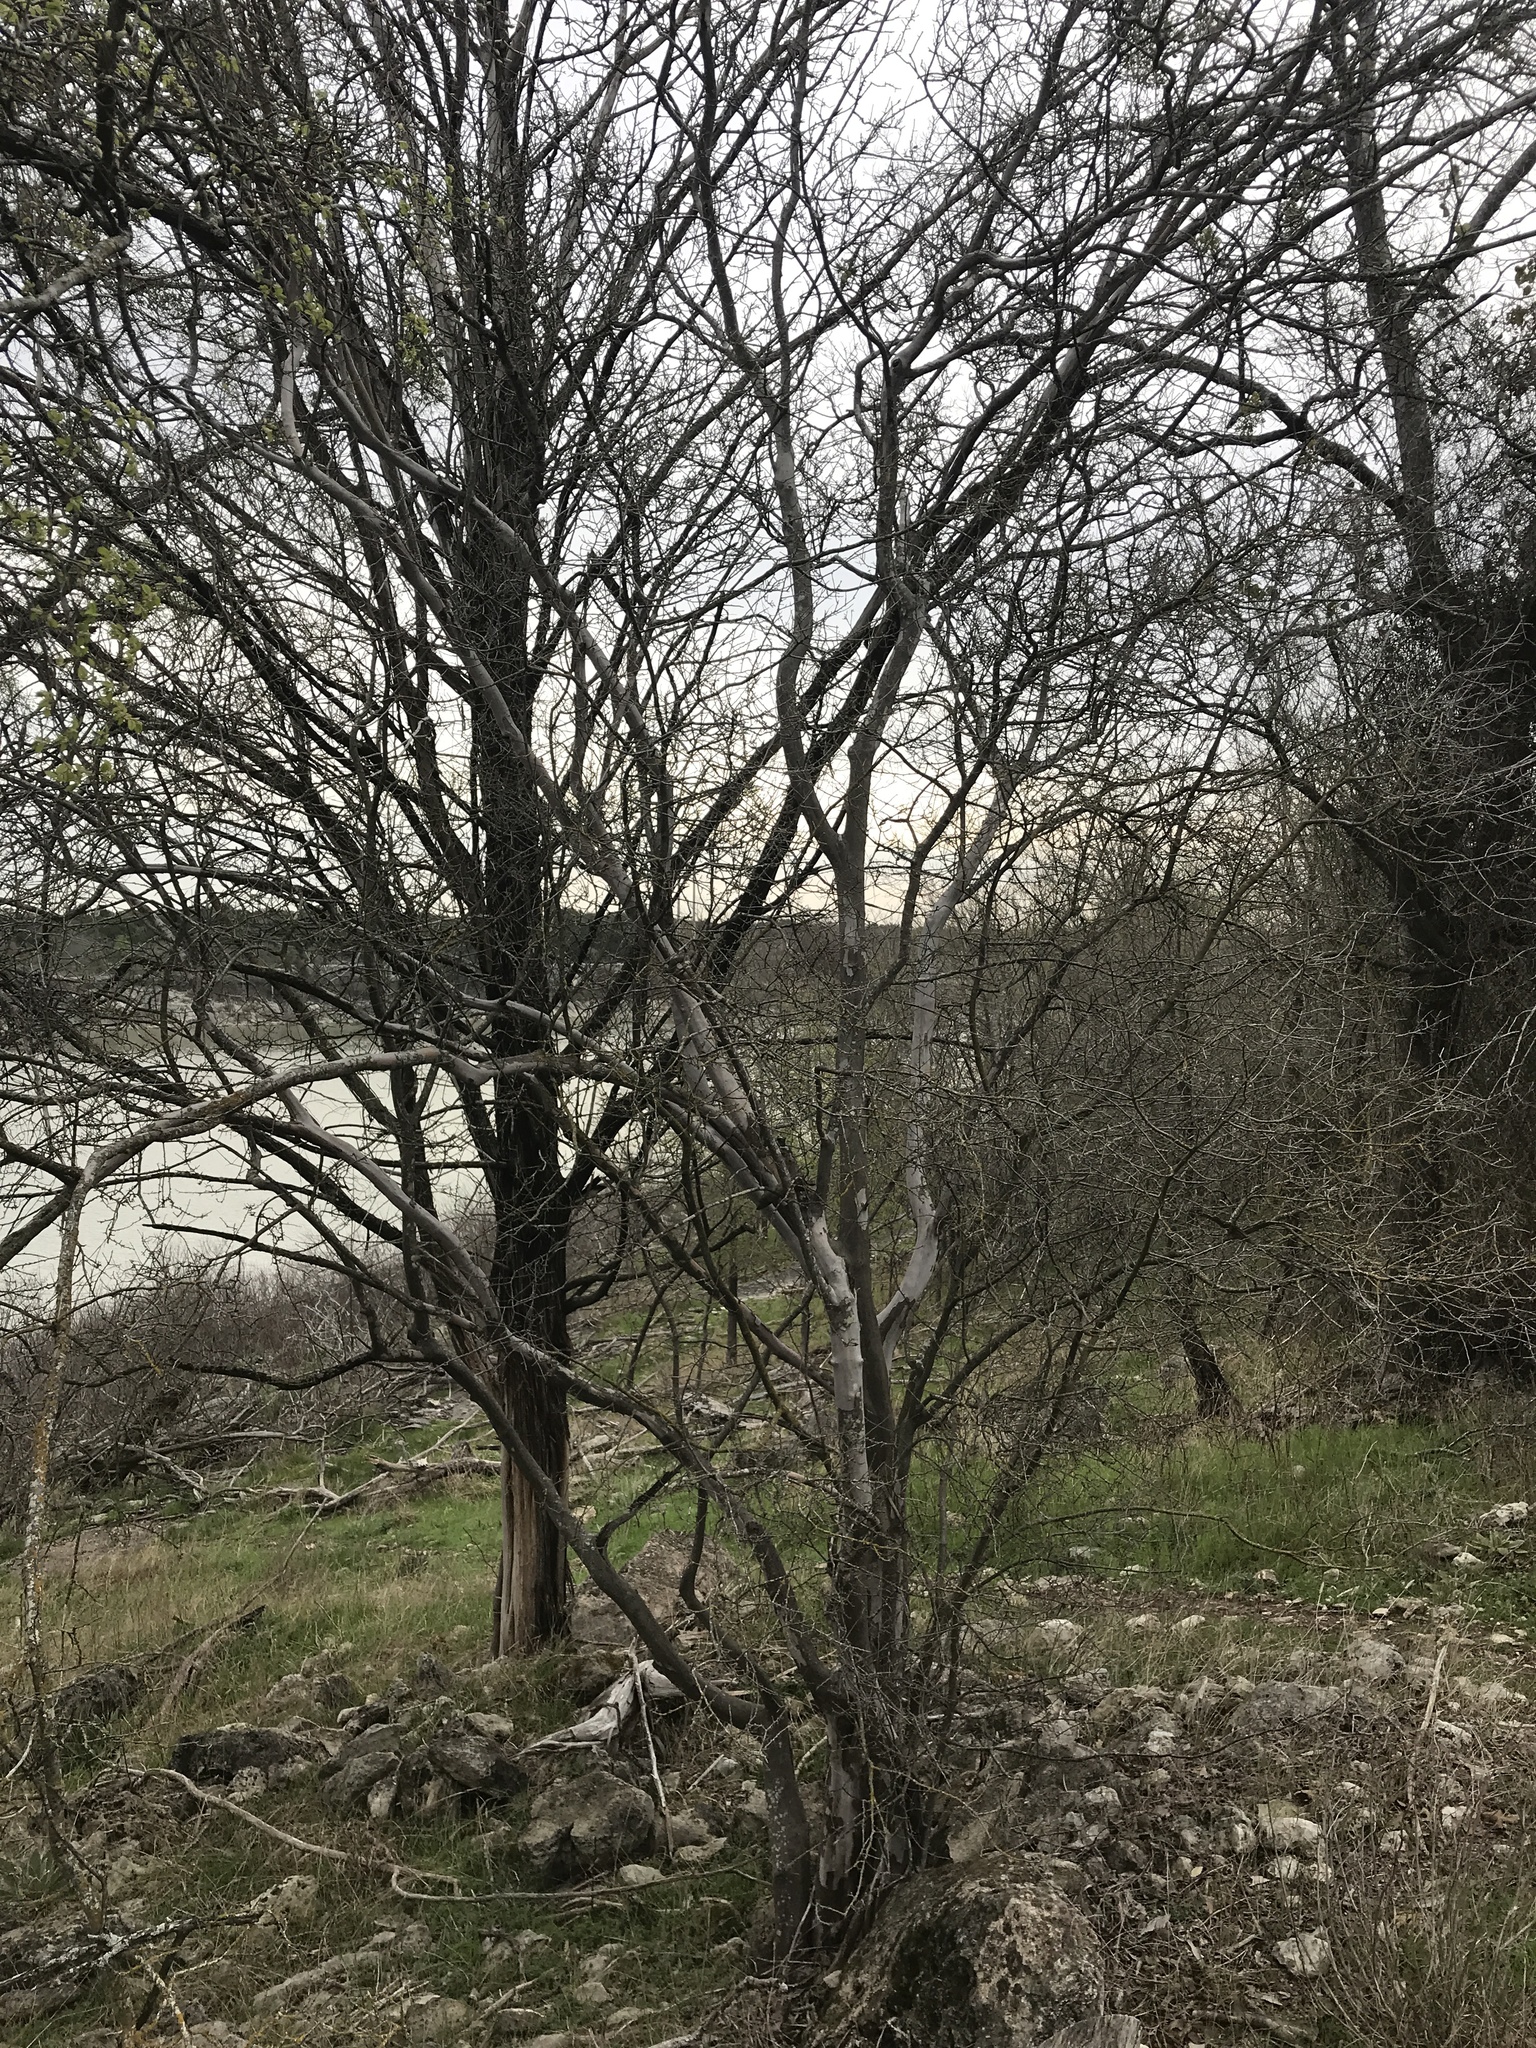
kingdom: Plantae
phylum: Tracheophyta
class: Magnoliopsida
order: Ericales
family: Ebenaceae
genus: Diospyros
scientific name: Diospyros texana
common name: Texas persimmon
